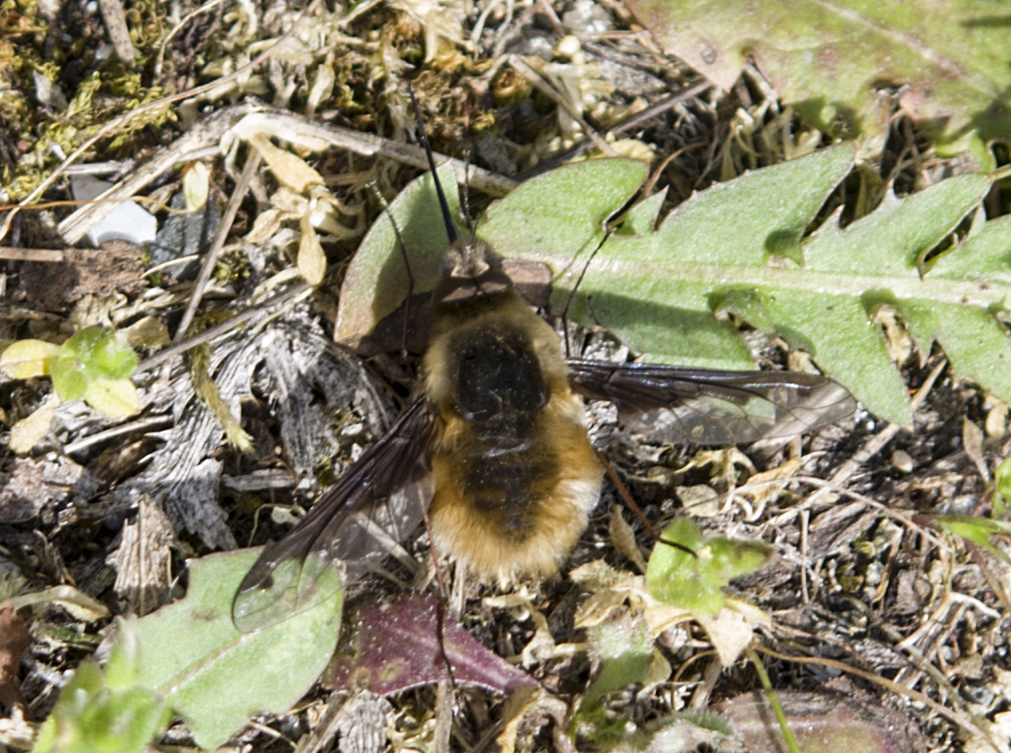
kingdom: Animalia
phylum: Arthropoda
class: Insecta
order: Diptera
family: Bombyliidae
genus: Bombylius
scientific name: Bombylius major
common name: Bee fly
